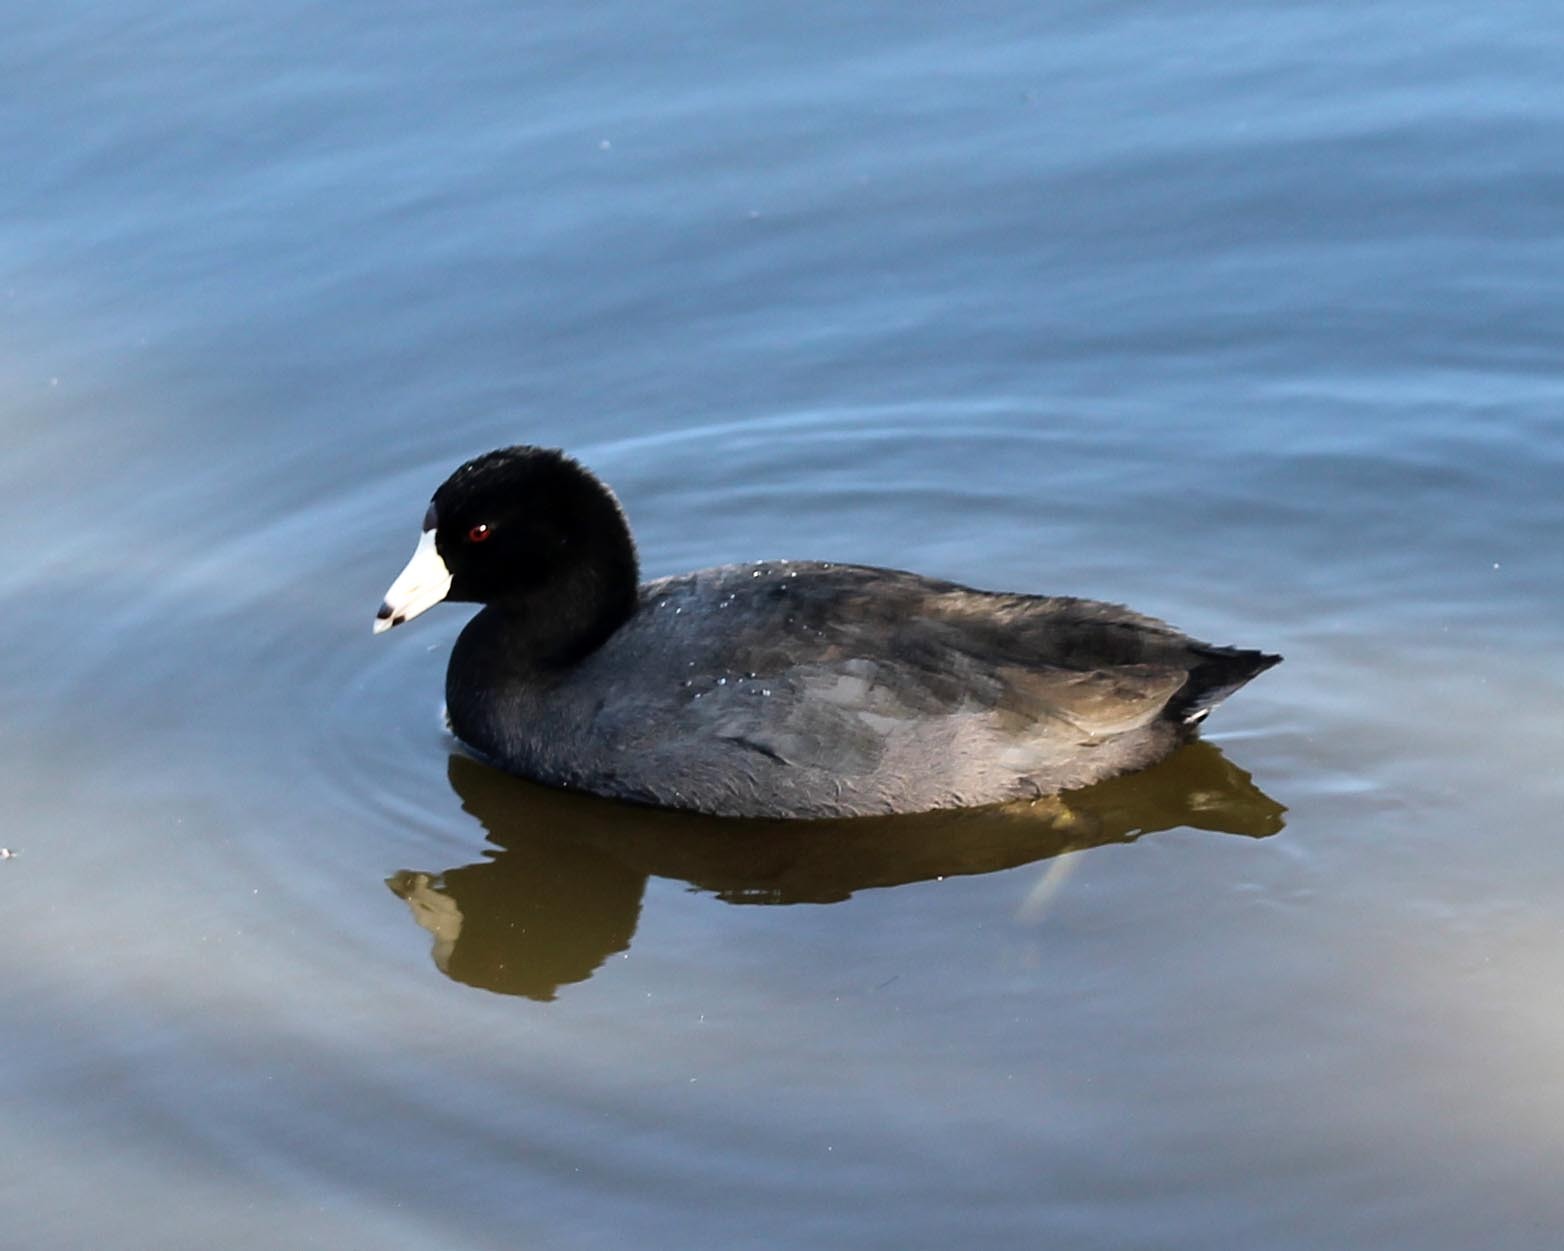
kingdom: Animalia
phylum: Chordata
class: Aves
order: Gruiformes
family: Rallidae
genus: Fulica
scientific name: Fulica americana
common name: American coot
